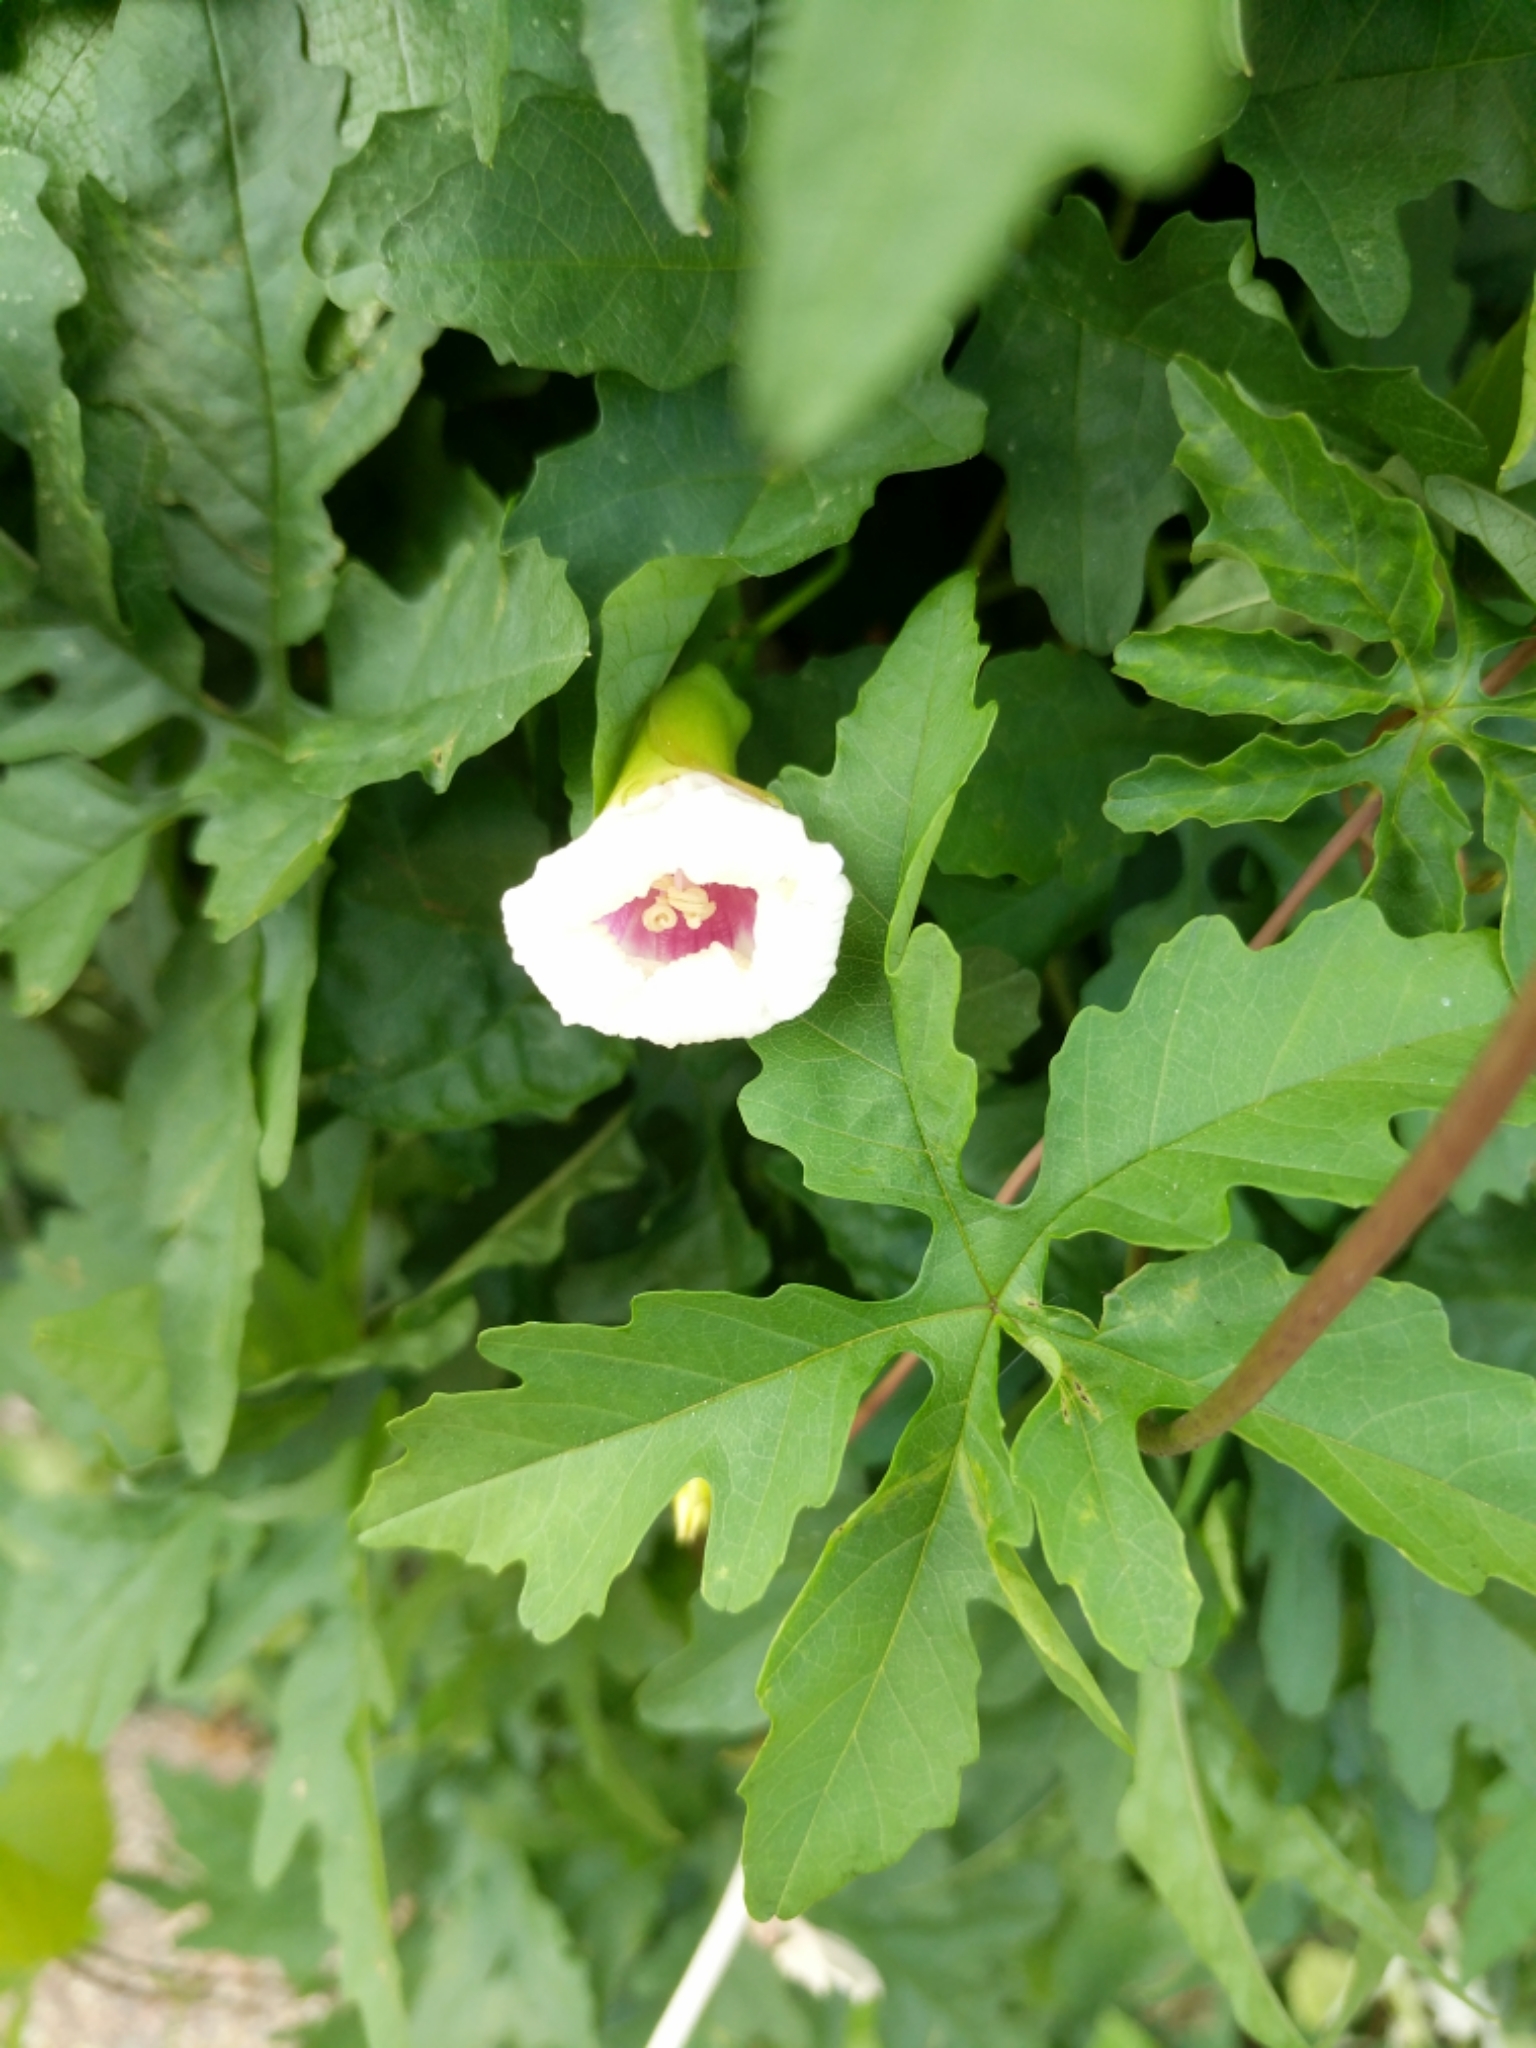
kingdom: Plantae
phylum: Tracheophyta
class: Magnoliopsida
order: Solanales
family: Convolvulaceae
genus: Distimake
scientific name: Distimake dissectus
